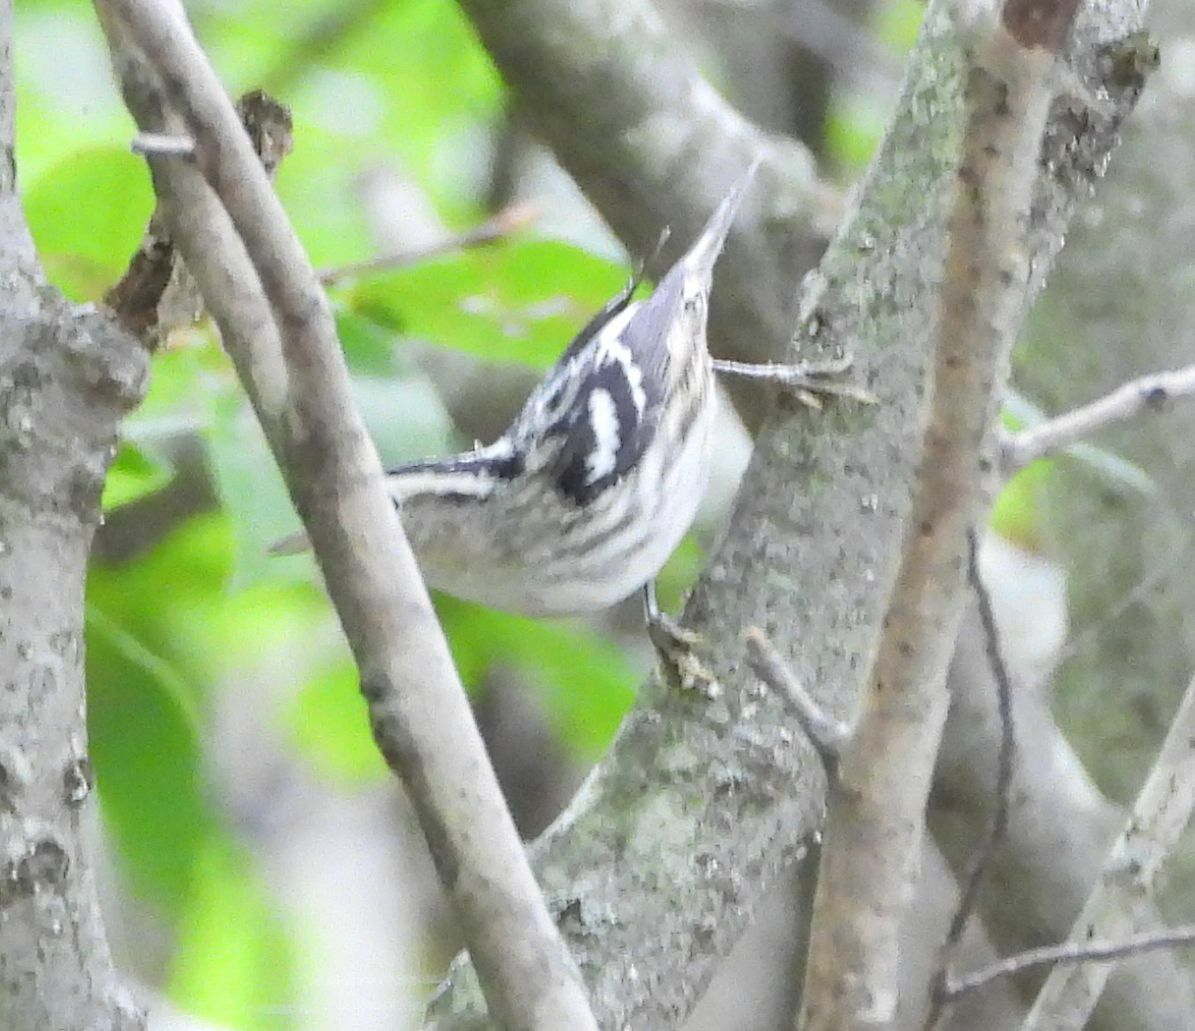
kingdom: Animalia
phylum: Chordata
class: Aves
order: Passeriformes
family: Parulidae
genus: Mniotilta
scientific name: Mniotilta varia
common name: Black-and-white warbler
